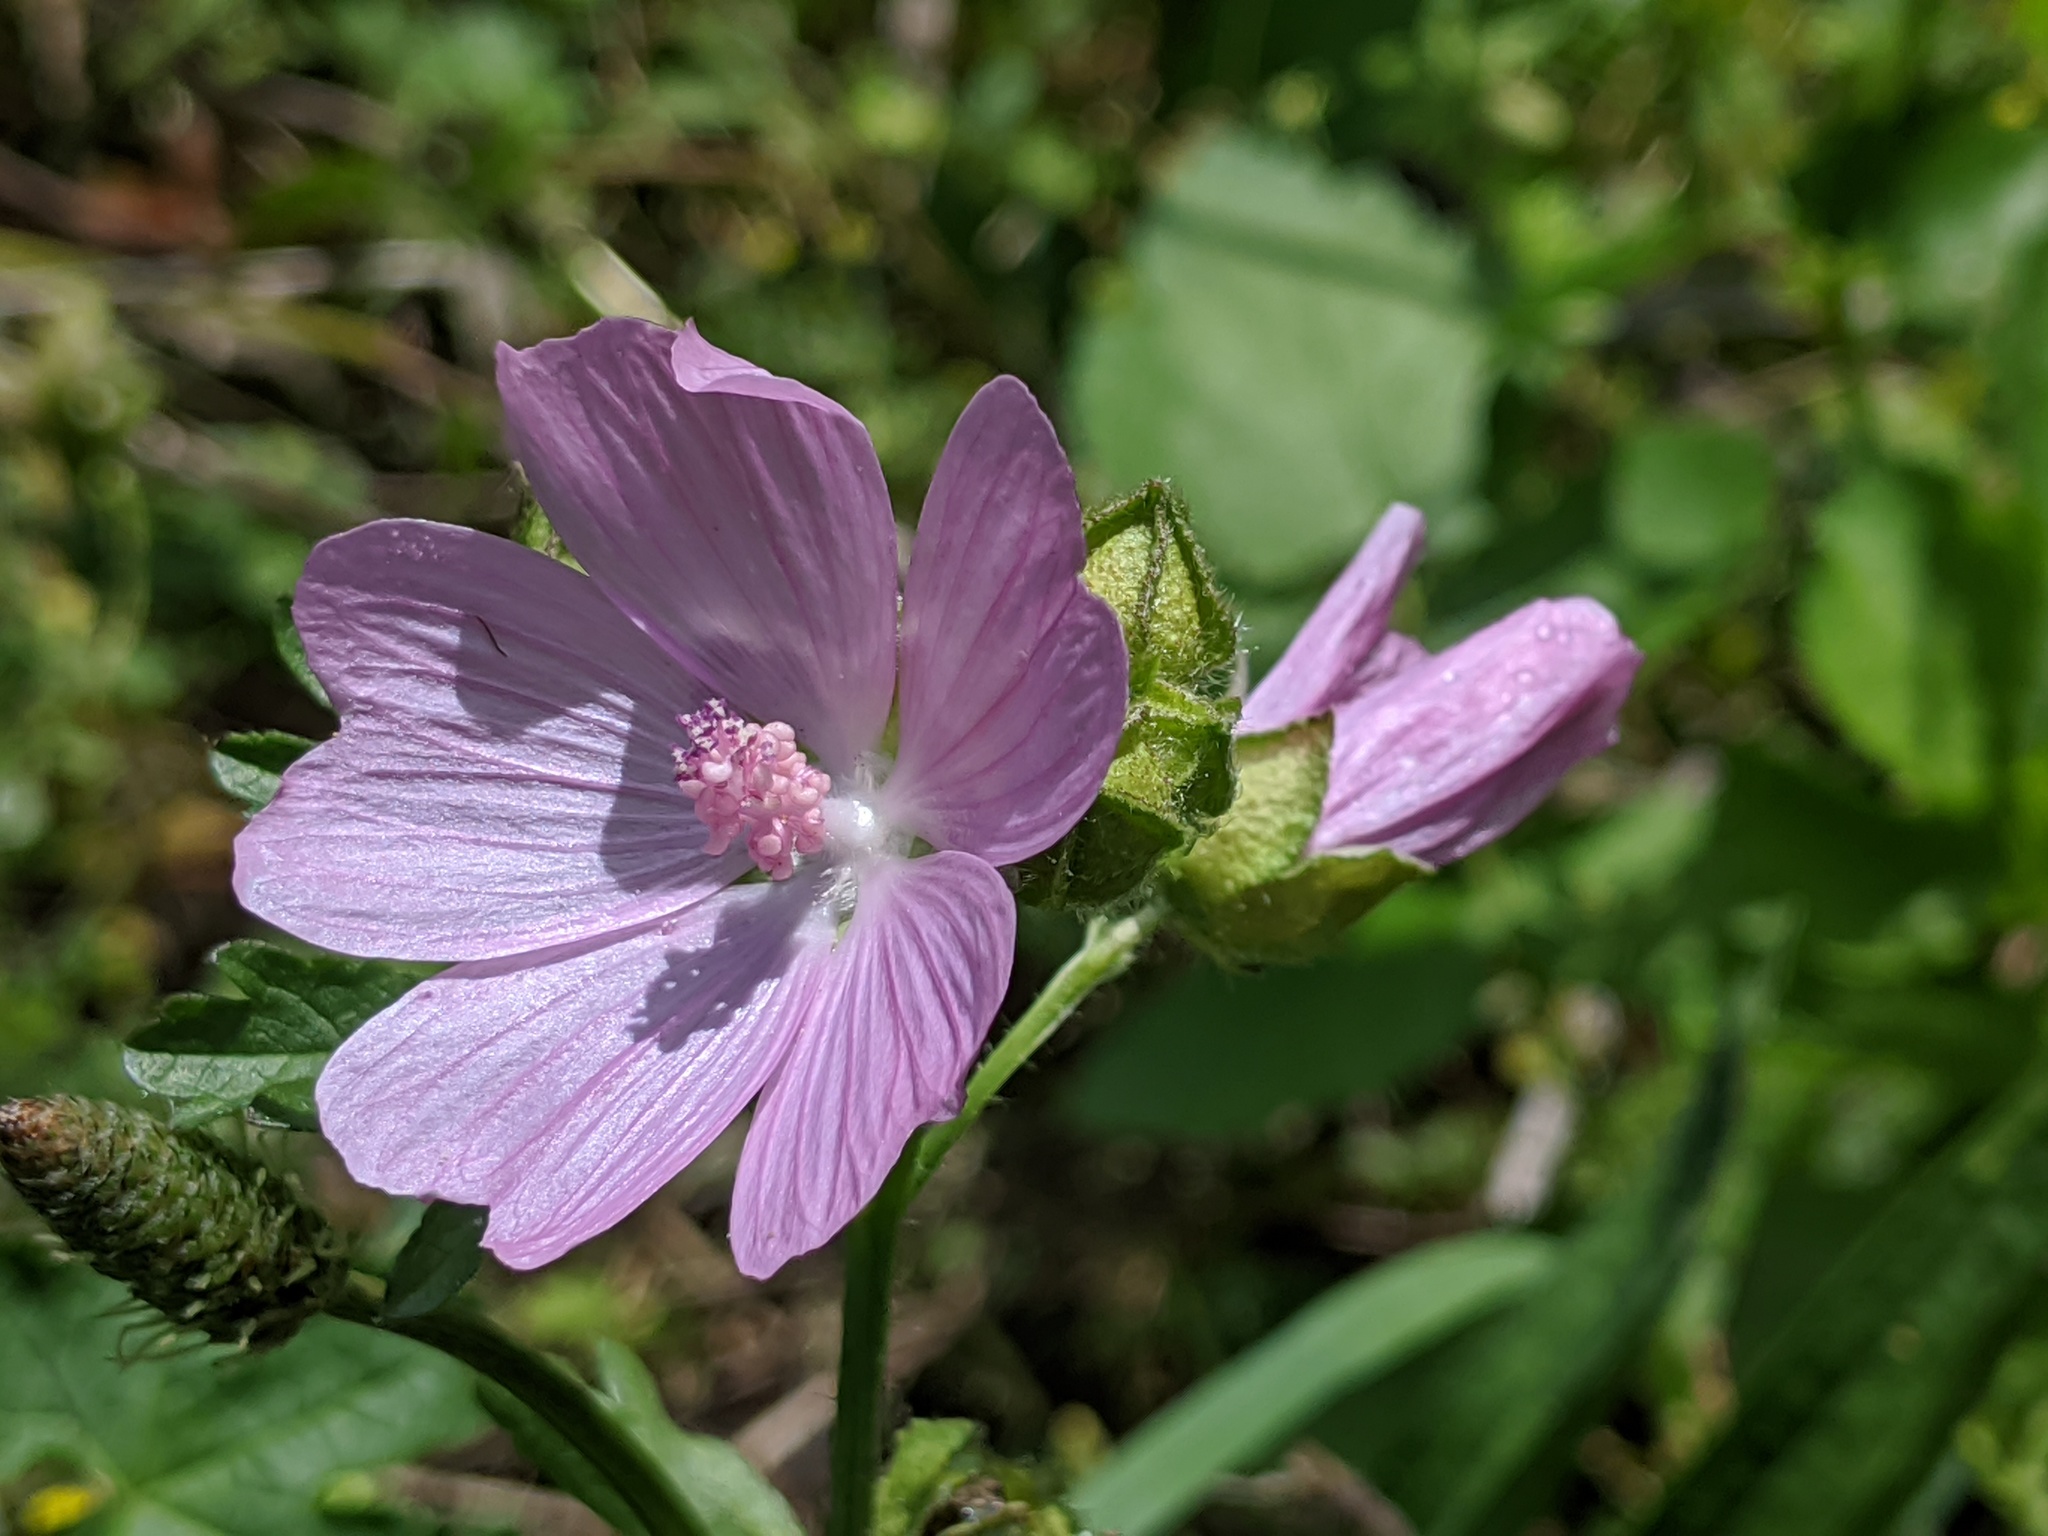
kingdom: Plantae
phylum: Tracheophyta
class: Magnoliopsida
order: Malvales
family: Malvaceae
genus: Malva
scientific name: Malva moschata
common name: Musk mallow
